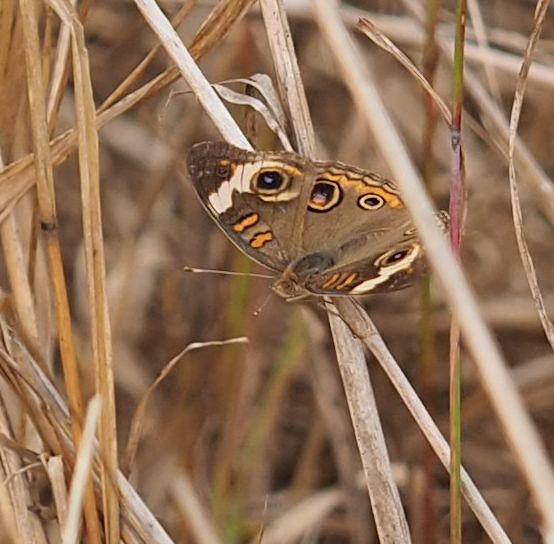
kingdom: Animalia
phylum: Arthropoda
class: Insecta
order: Lepidoptera
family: Nymphalidae
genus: Junonia
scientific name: Junonia coenia
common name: Common buckeye
